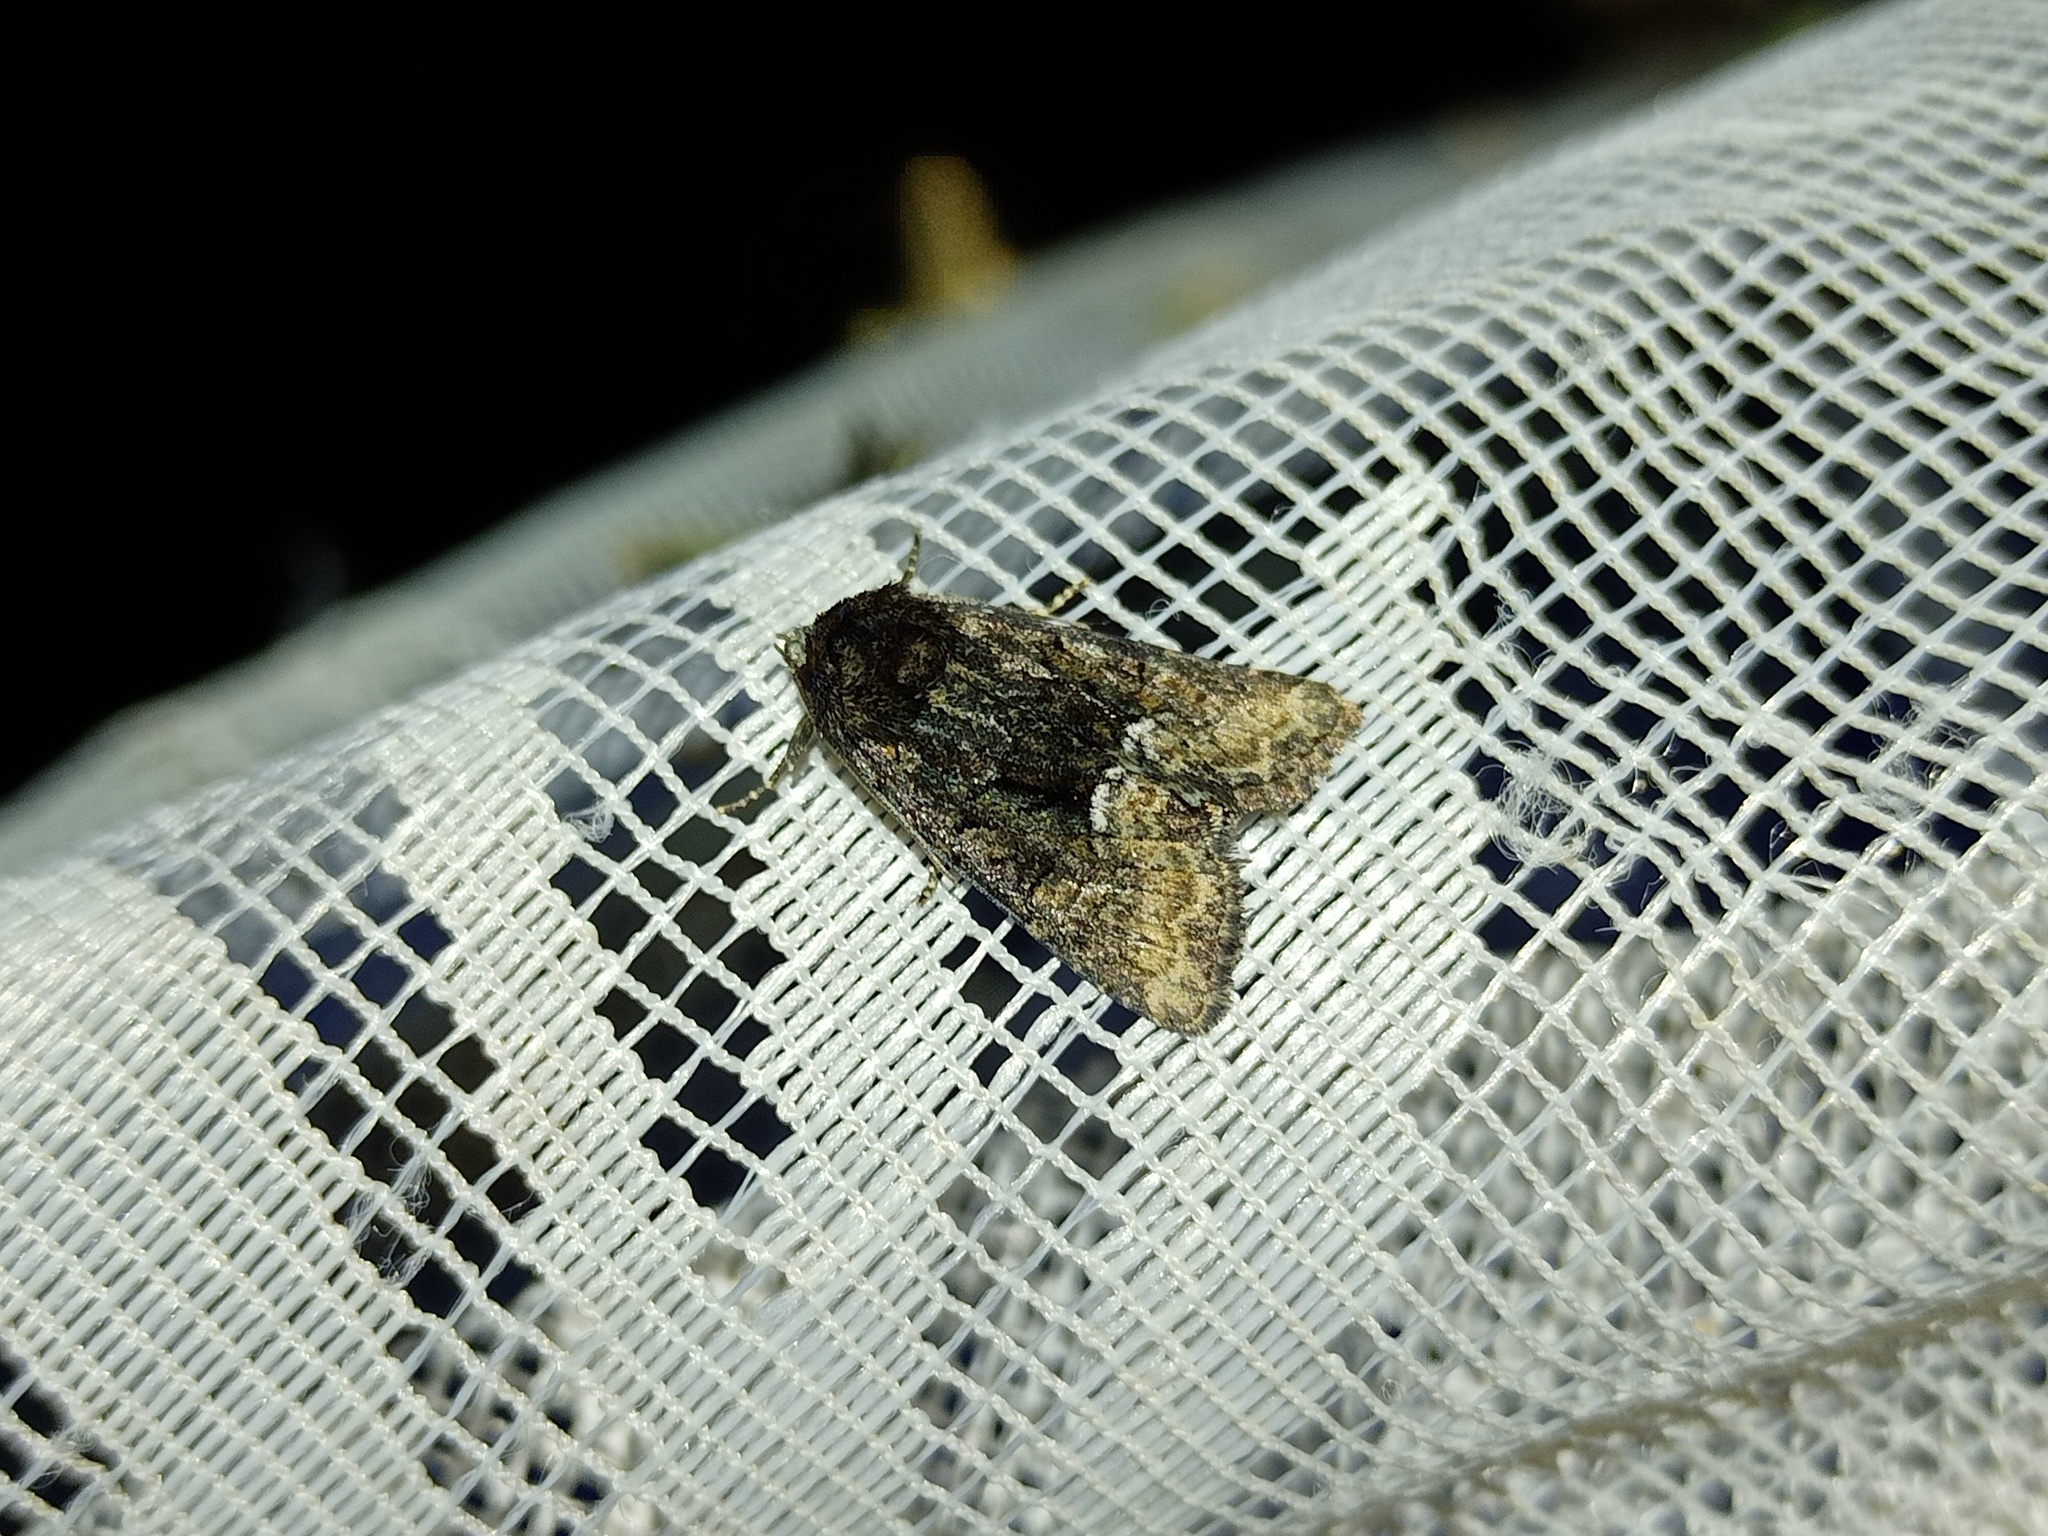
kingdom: Animalia
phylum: Arthropoda
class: Insecta
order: Lepidoptera
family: Noctuidae
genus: Oligia
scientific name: Oligia latruncula
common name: Tawny marbled minor
